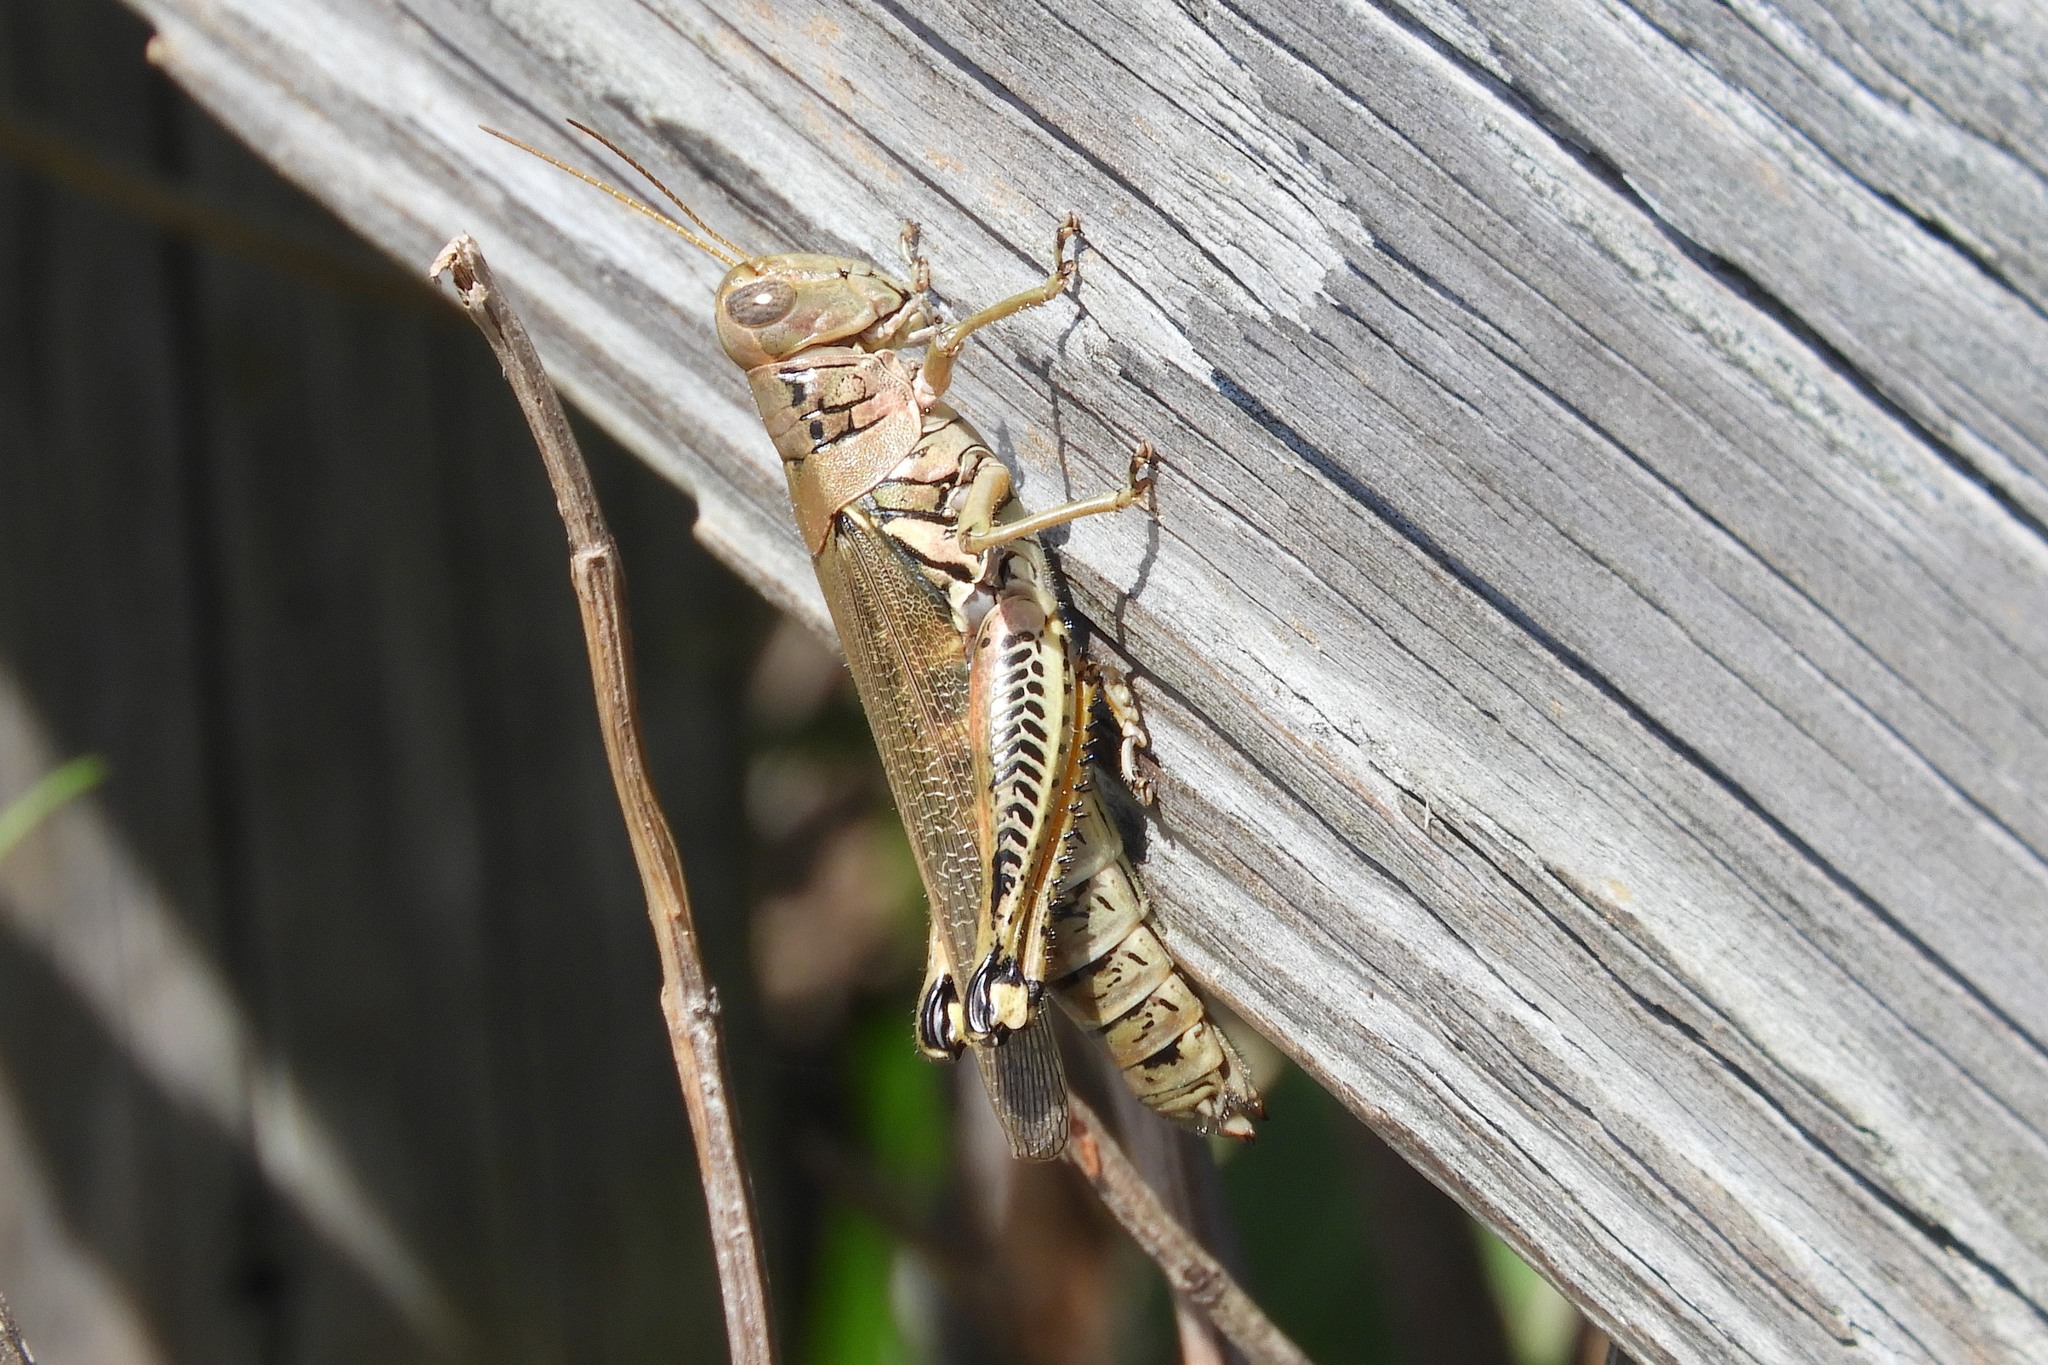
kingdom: Animalia
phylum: Arthropoda
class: Insecta
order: Orthoptera
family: Acrididae
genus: Melanoplus
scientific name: Melanoplus differentialis
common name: Differential grasshopper
